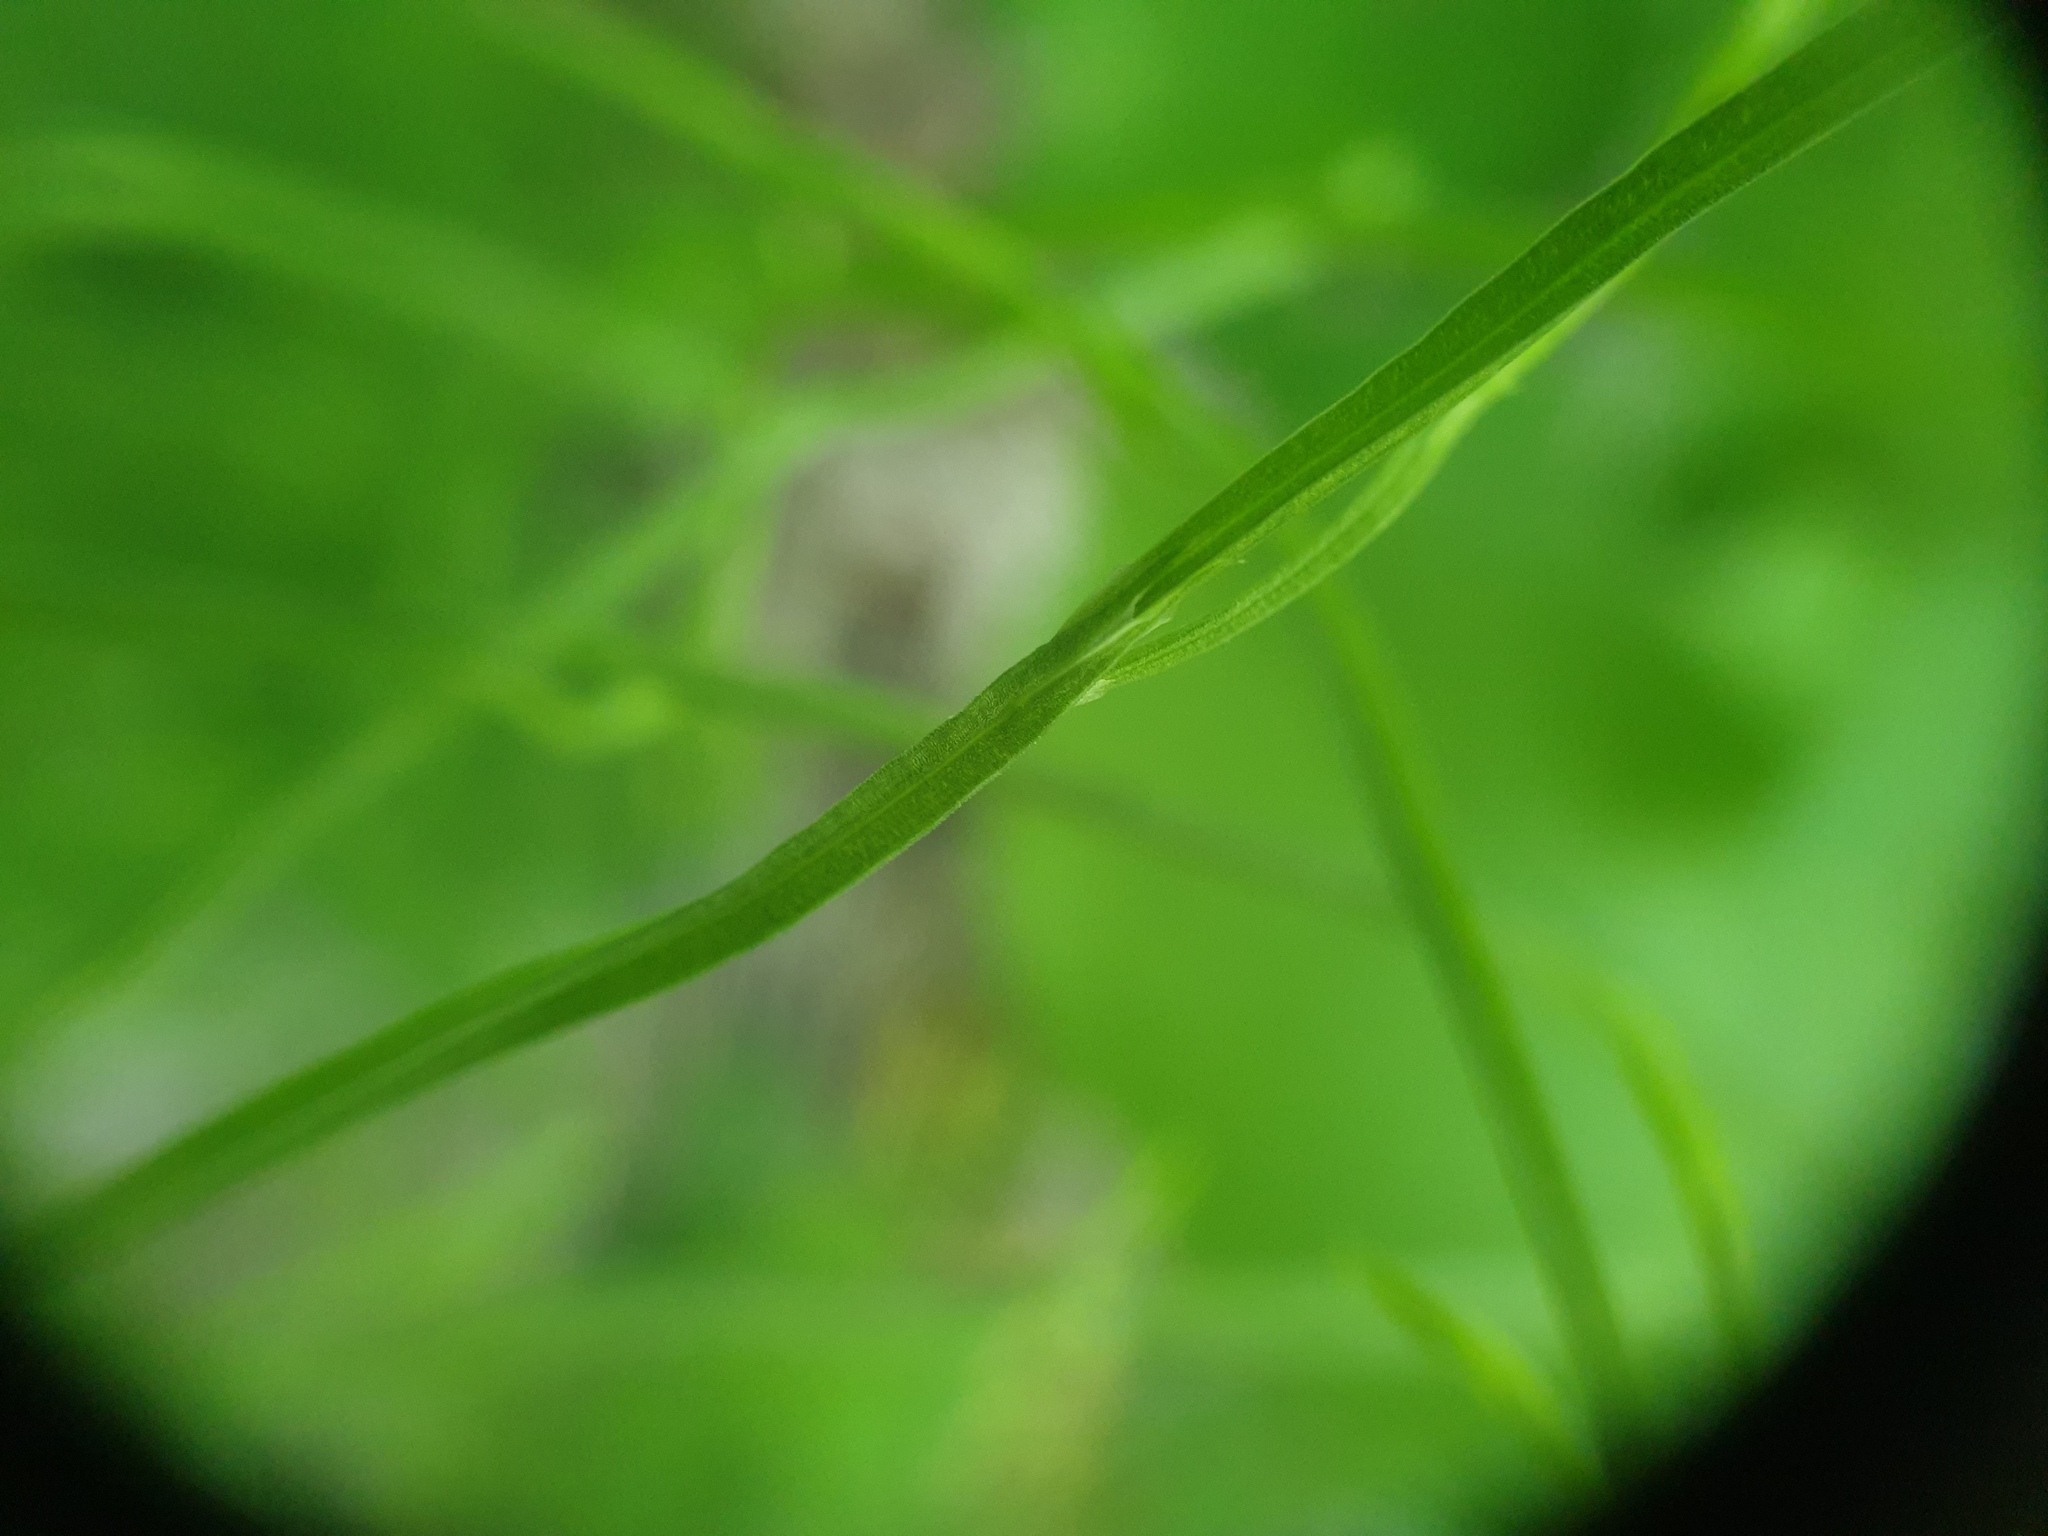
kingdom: Plantae
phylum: Tracheophyta
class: Polypodiopsida
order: Equisetales
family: Equisetaceae
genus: Equisetum
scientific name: Equisetum arvense
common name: Field horsetail
